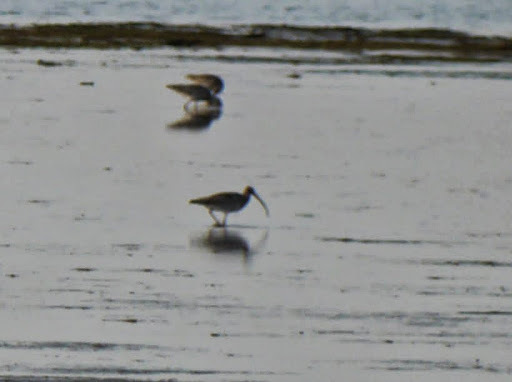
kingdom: Animalia
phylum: Chordata
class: Aves
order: Charadriiformes
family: Scolopacidae
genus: Numenius
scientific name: Numenius arquata
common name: Eurasian curlew
